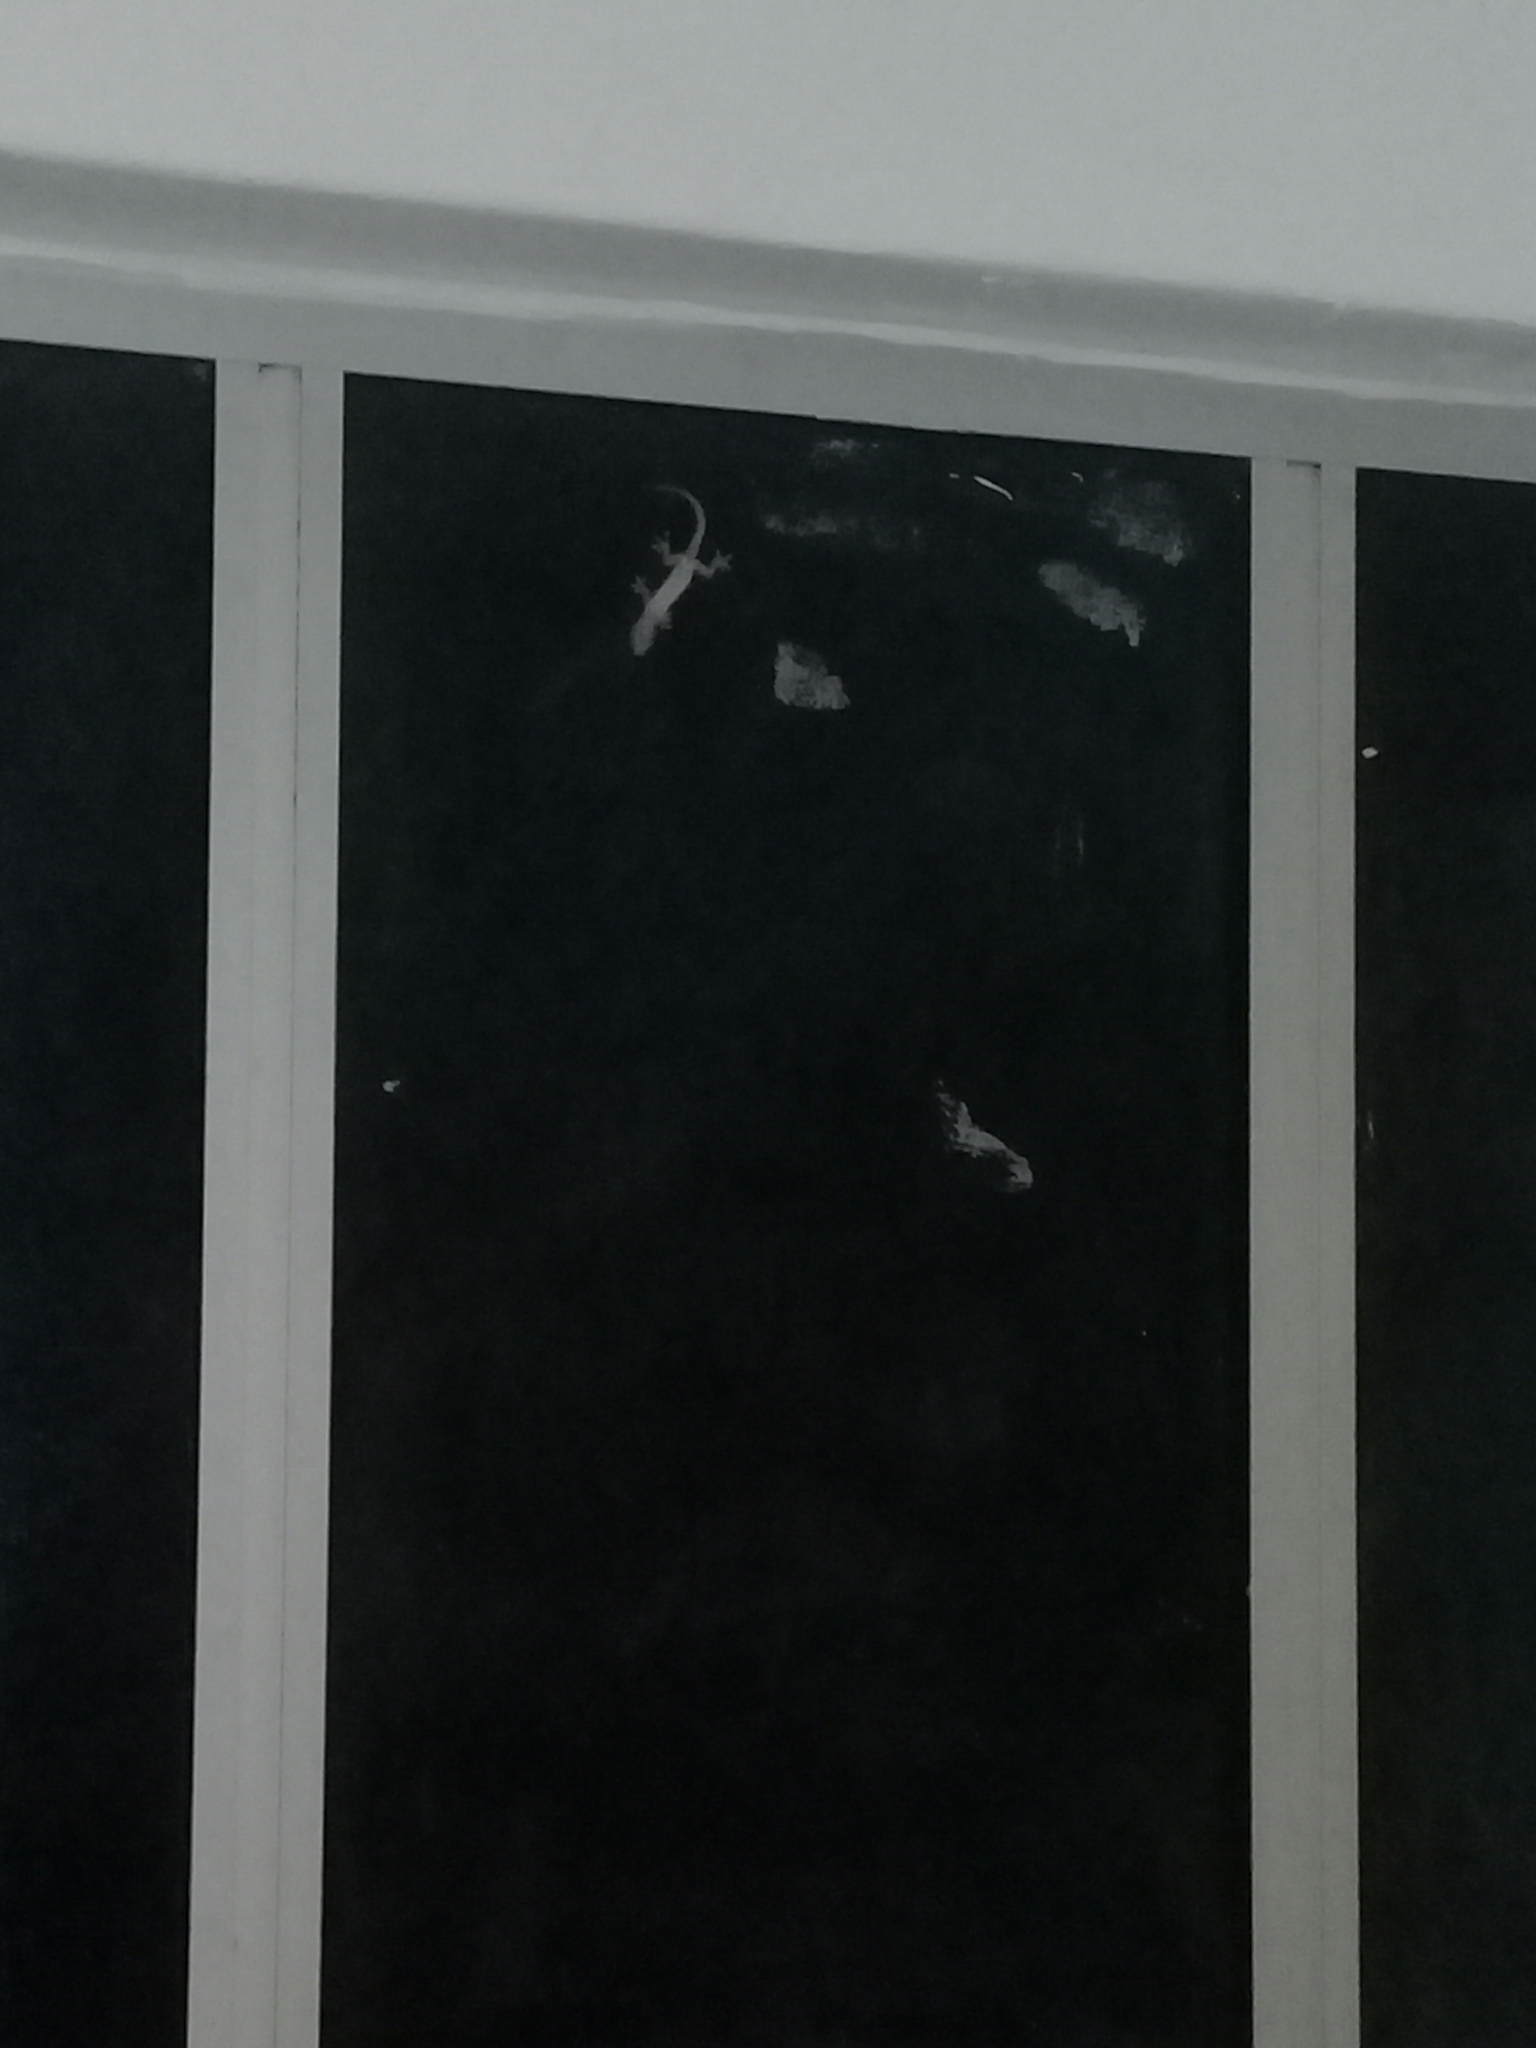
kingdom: Animalia
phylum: Chordata
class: Squamata
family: Gekkonidae
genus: Hemidactylus
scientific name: Hemidactylus mabouia
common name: House gecko
